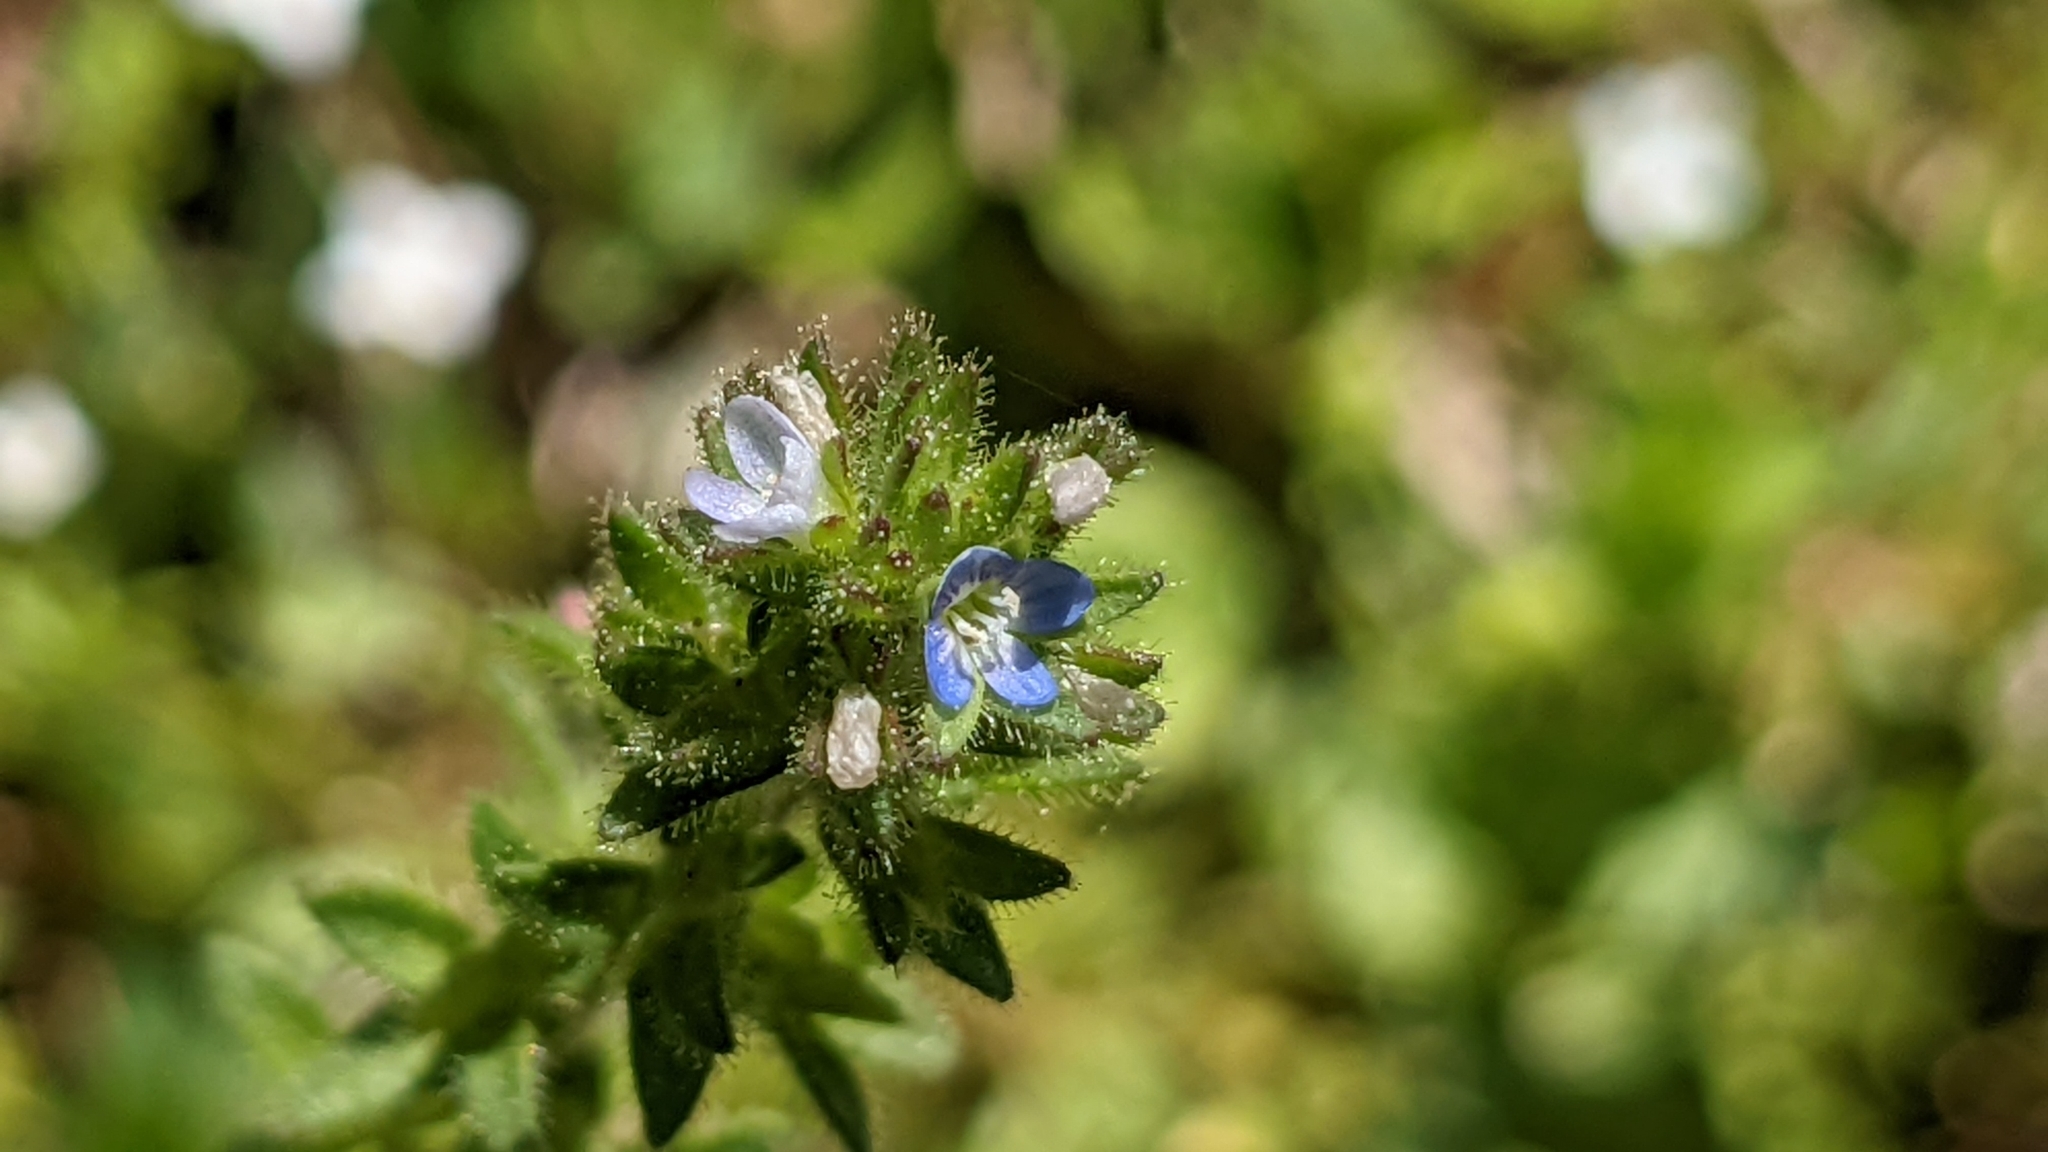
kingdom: Plantae
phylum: Tracheophyta
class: Magnoliopsida
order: Lamiales
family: Plantaginaceae
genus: Veronica
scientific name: Veronica arvensis
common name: Corn speedwell
